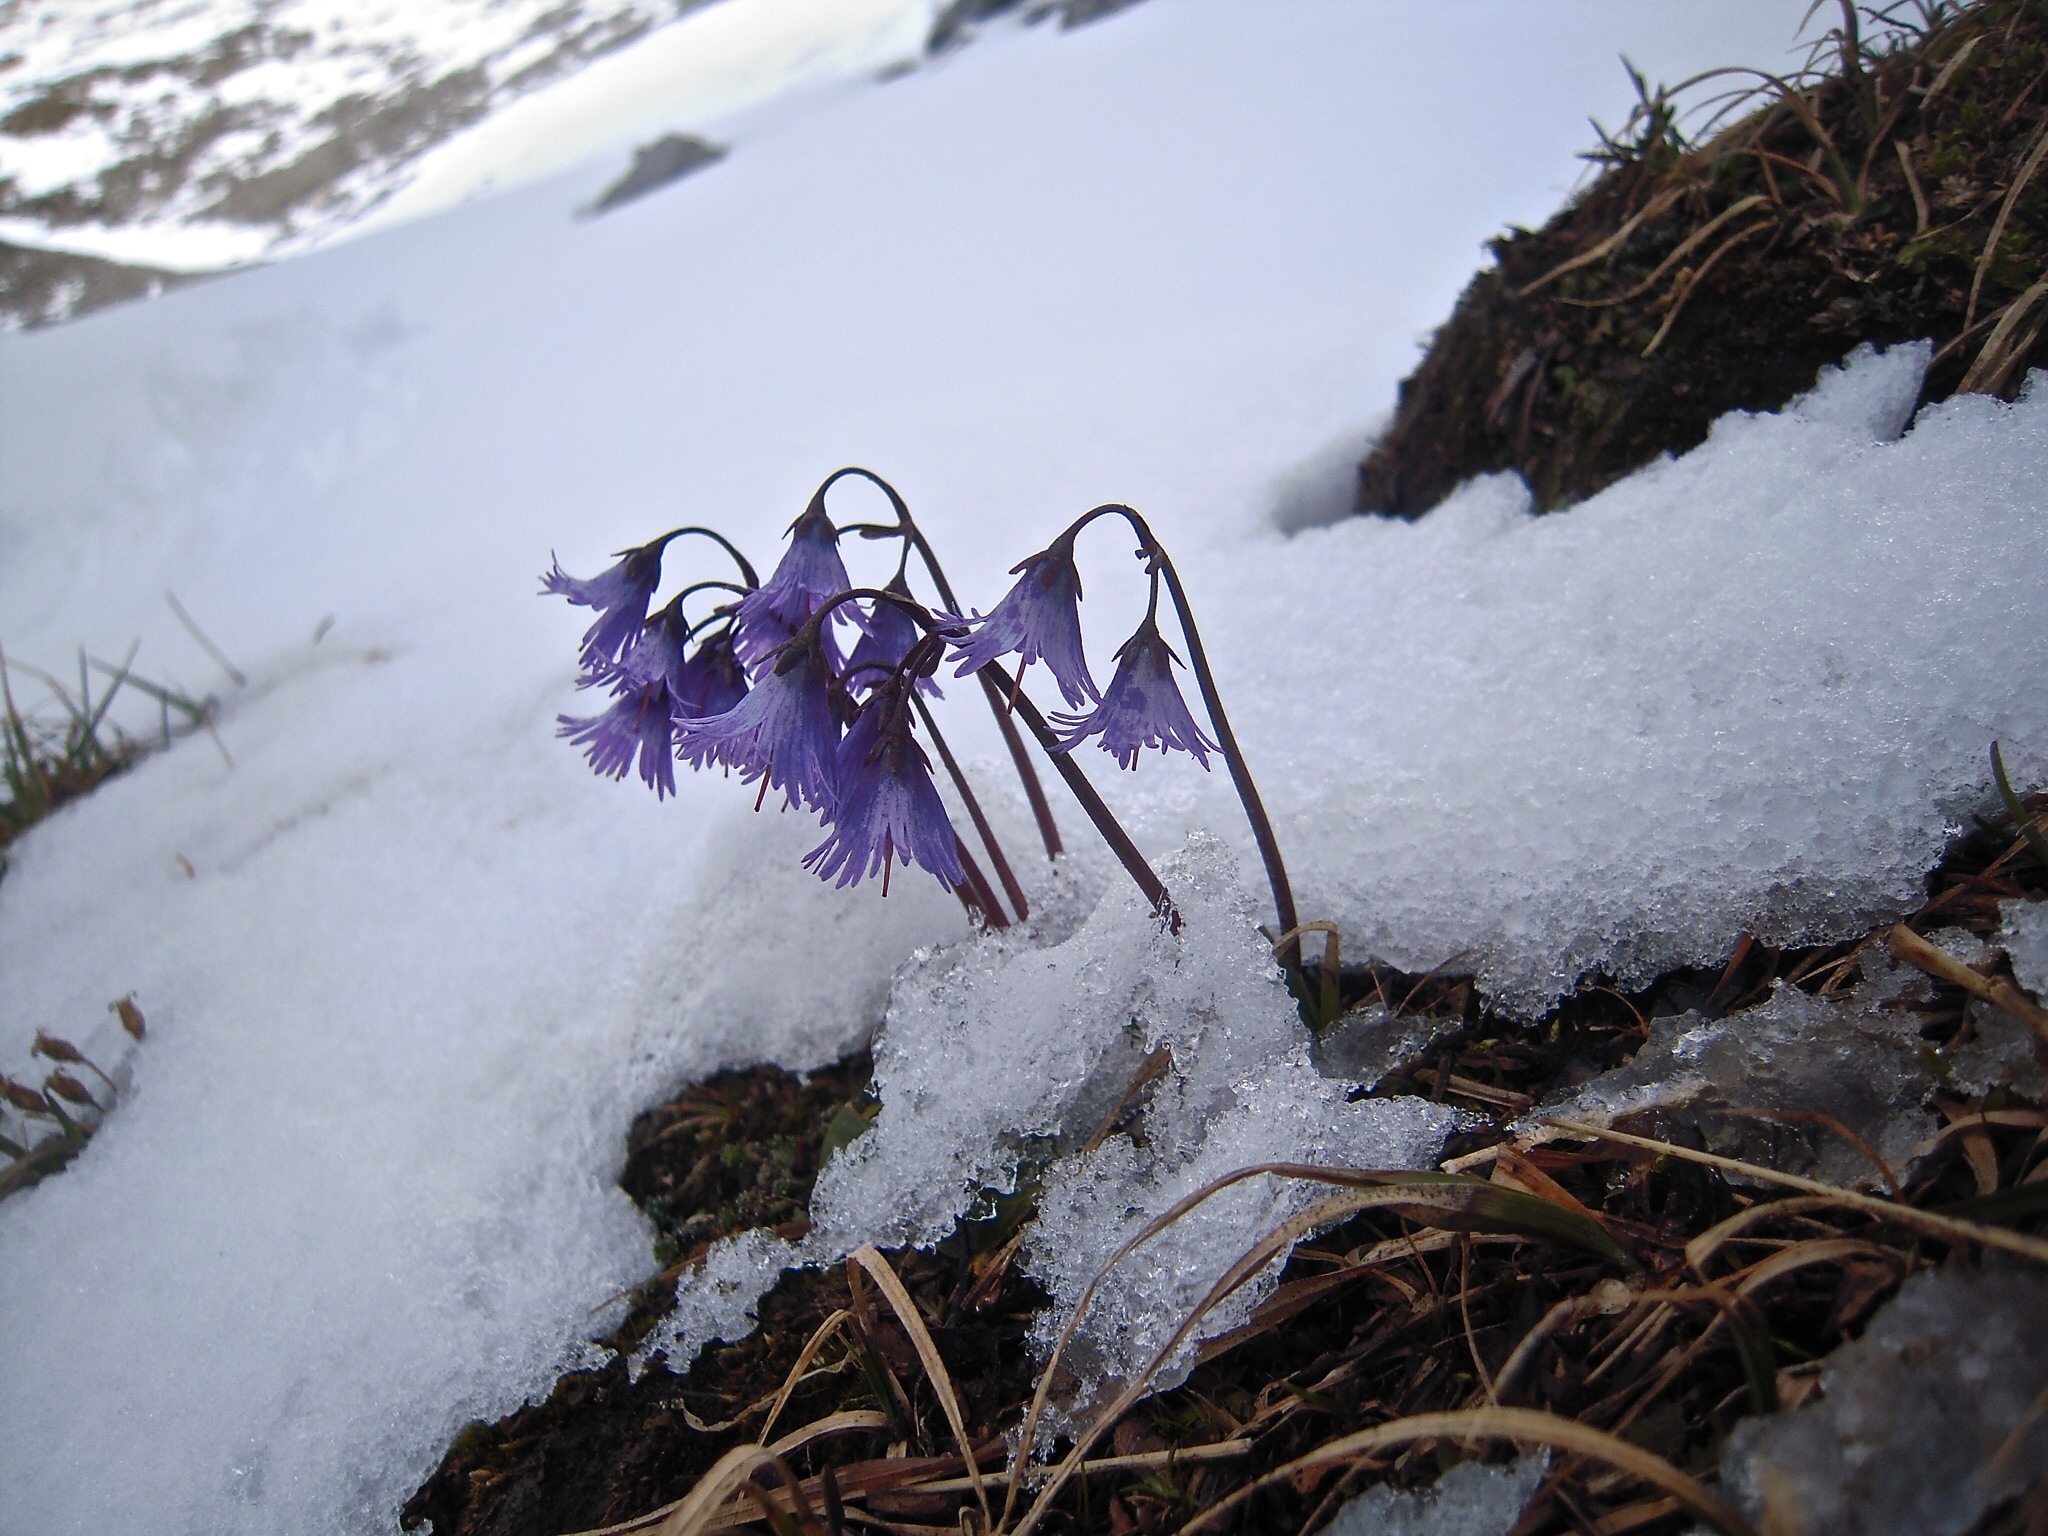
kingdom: Plantae
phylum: Tracheophyta
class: Magnoliopsida
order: Ericales
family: Primulaceae
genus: Soldanella
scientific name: Soldanella alpina
